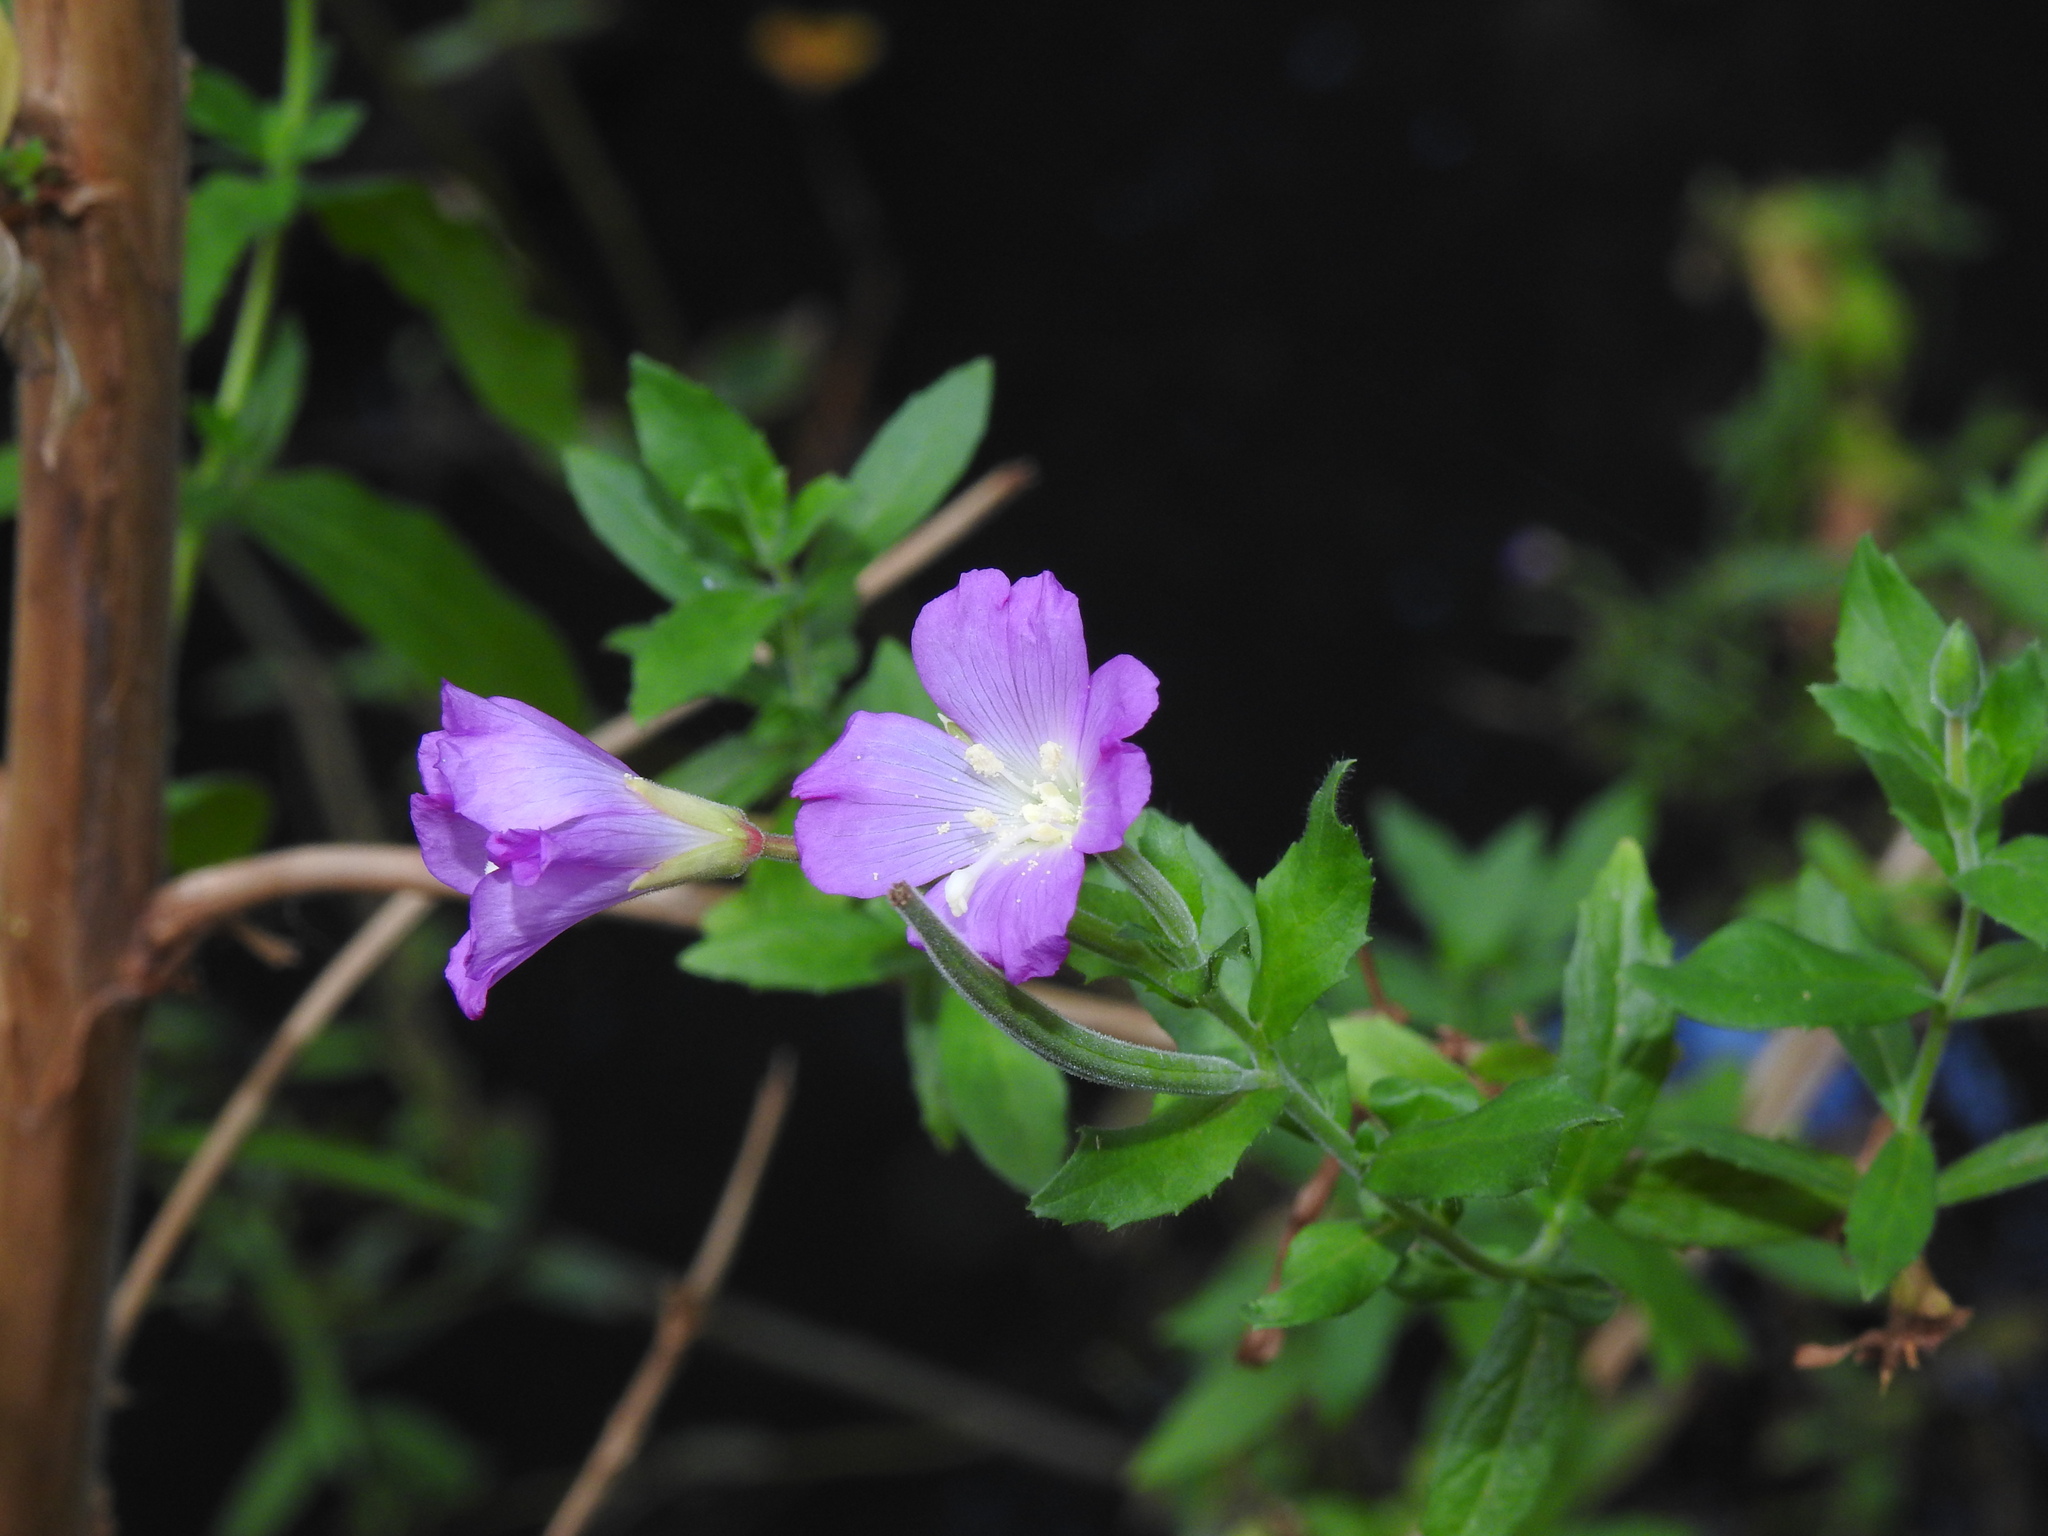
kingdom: Plantae
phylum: Tracheophyta
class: Magnoliopsida
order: Myrtales
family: Onagraceae
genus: Epilobium
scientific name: Epilobium hirsutum
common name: Great willowherb
